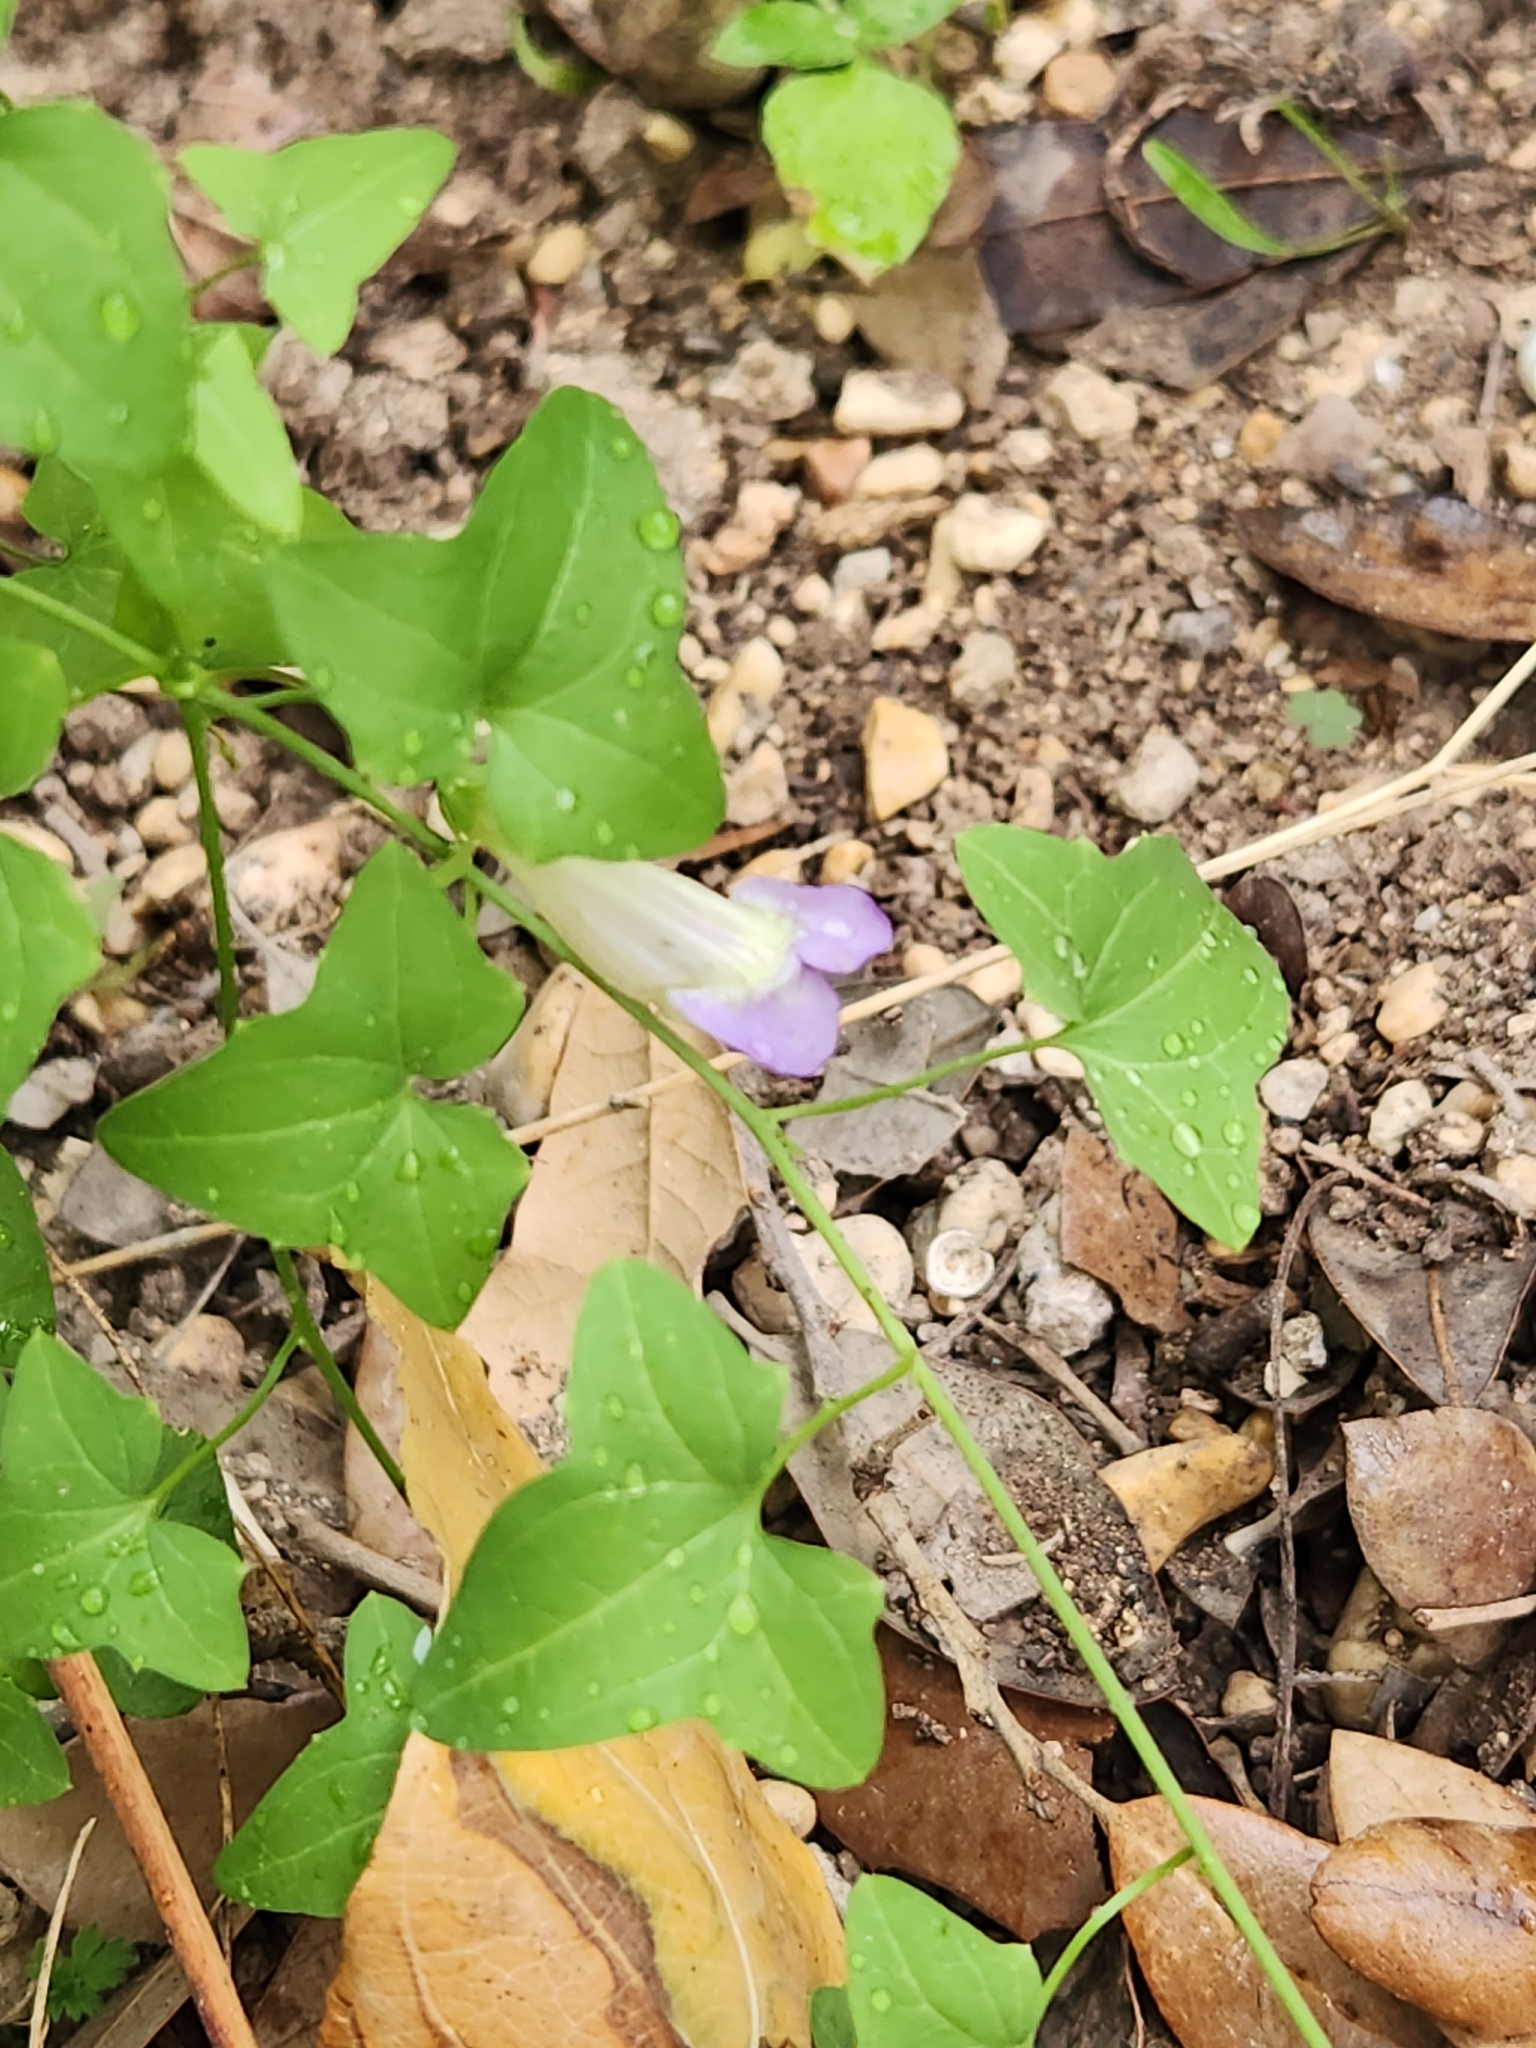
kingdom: Plantae
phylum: Tracheophyta
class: Magnoliopsida
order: Lamiales
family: Plantaginaceae
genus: Maurandella
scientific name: Maurandella antirrhiniflora
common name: Violet twining-snapdragon
